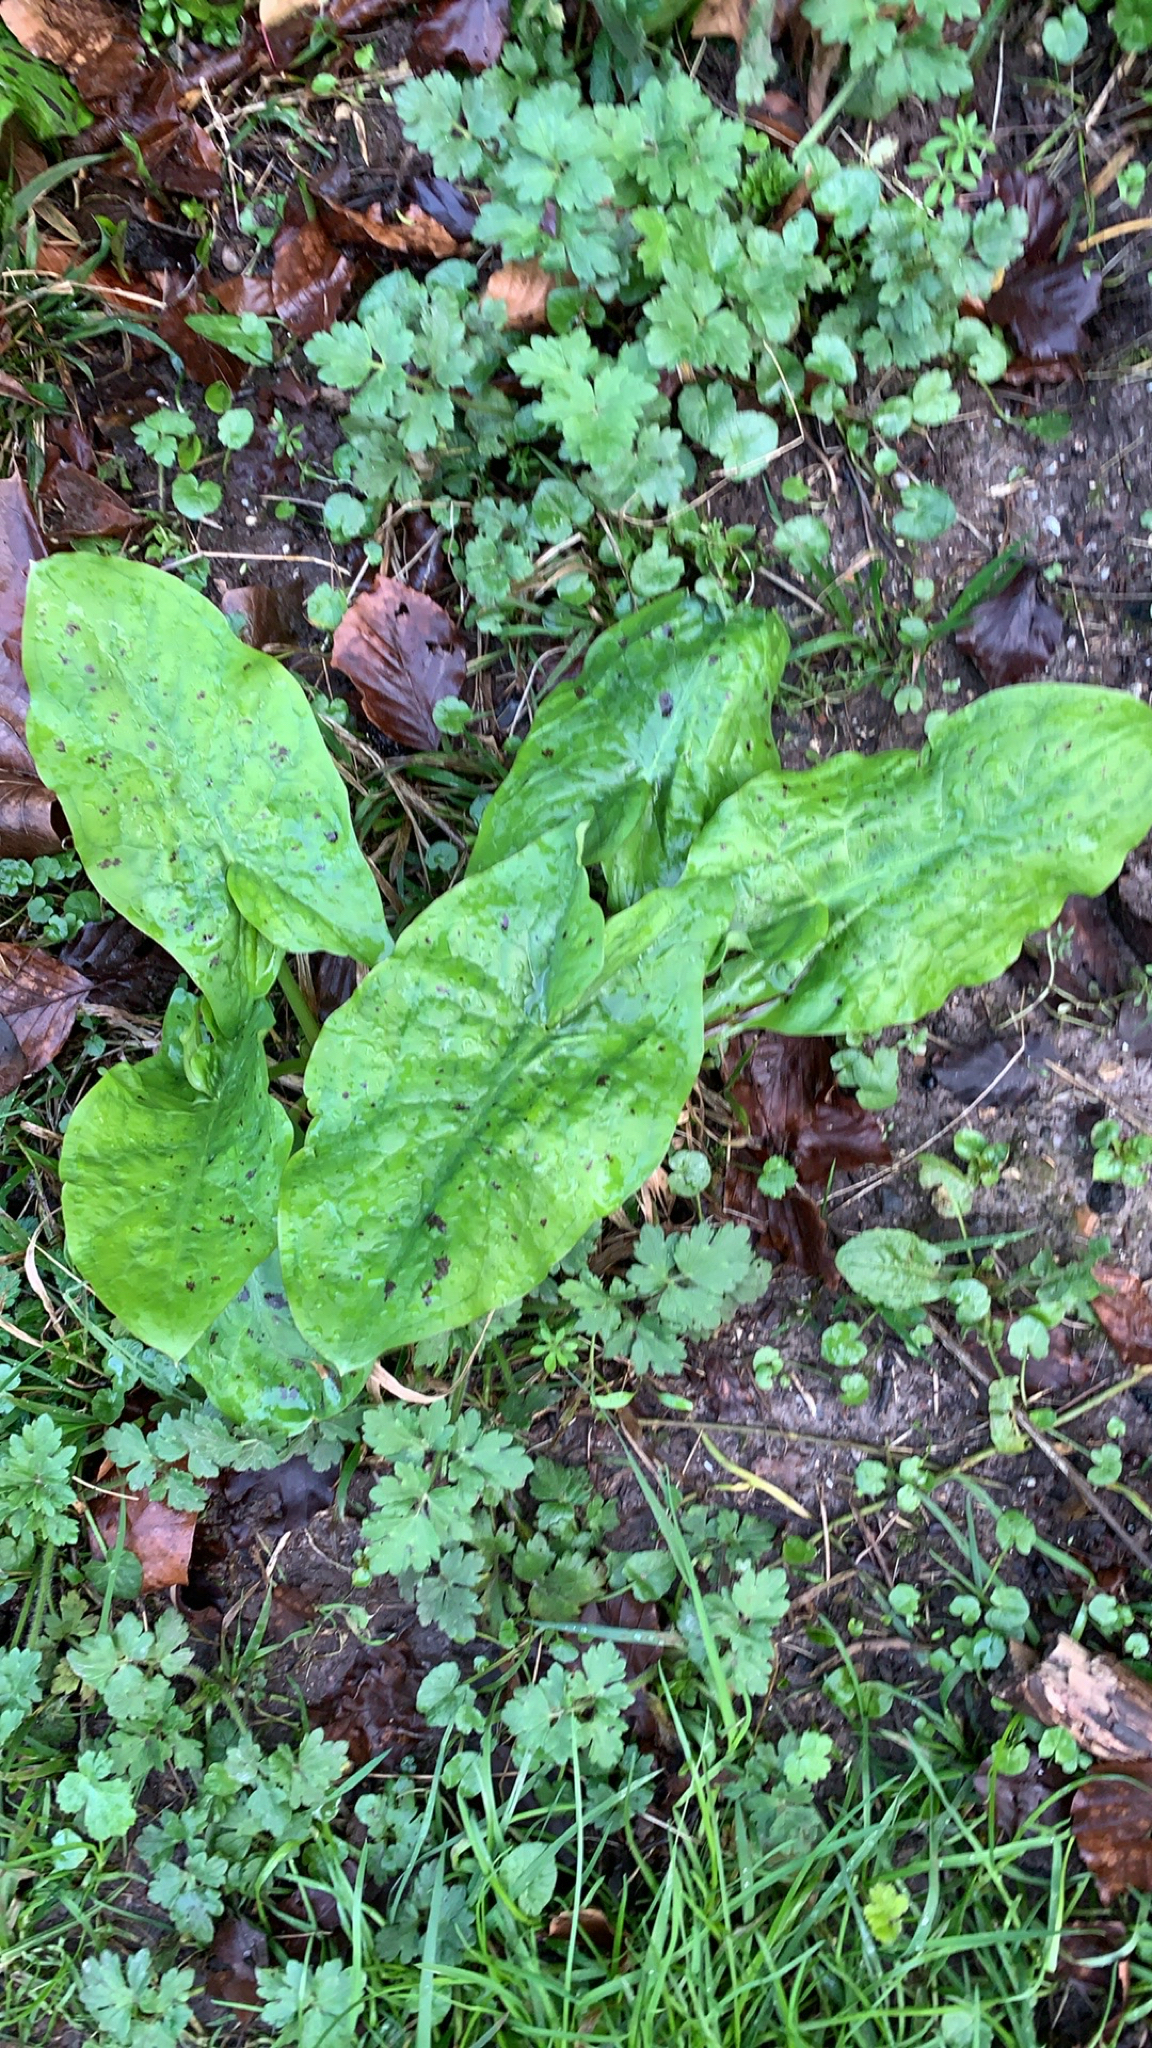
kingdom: Plantae
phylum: Tracheophyta
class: Liliopsida
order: Alismatales
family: Araceae
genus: Arum
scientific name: Arum maculatum
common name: Lords-and-ladies
